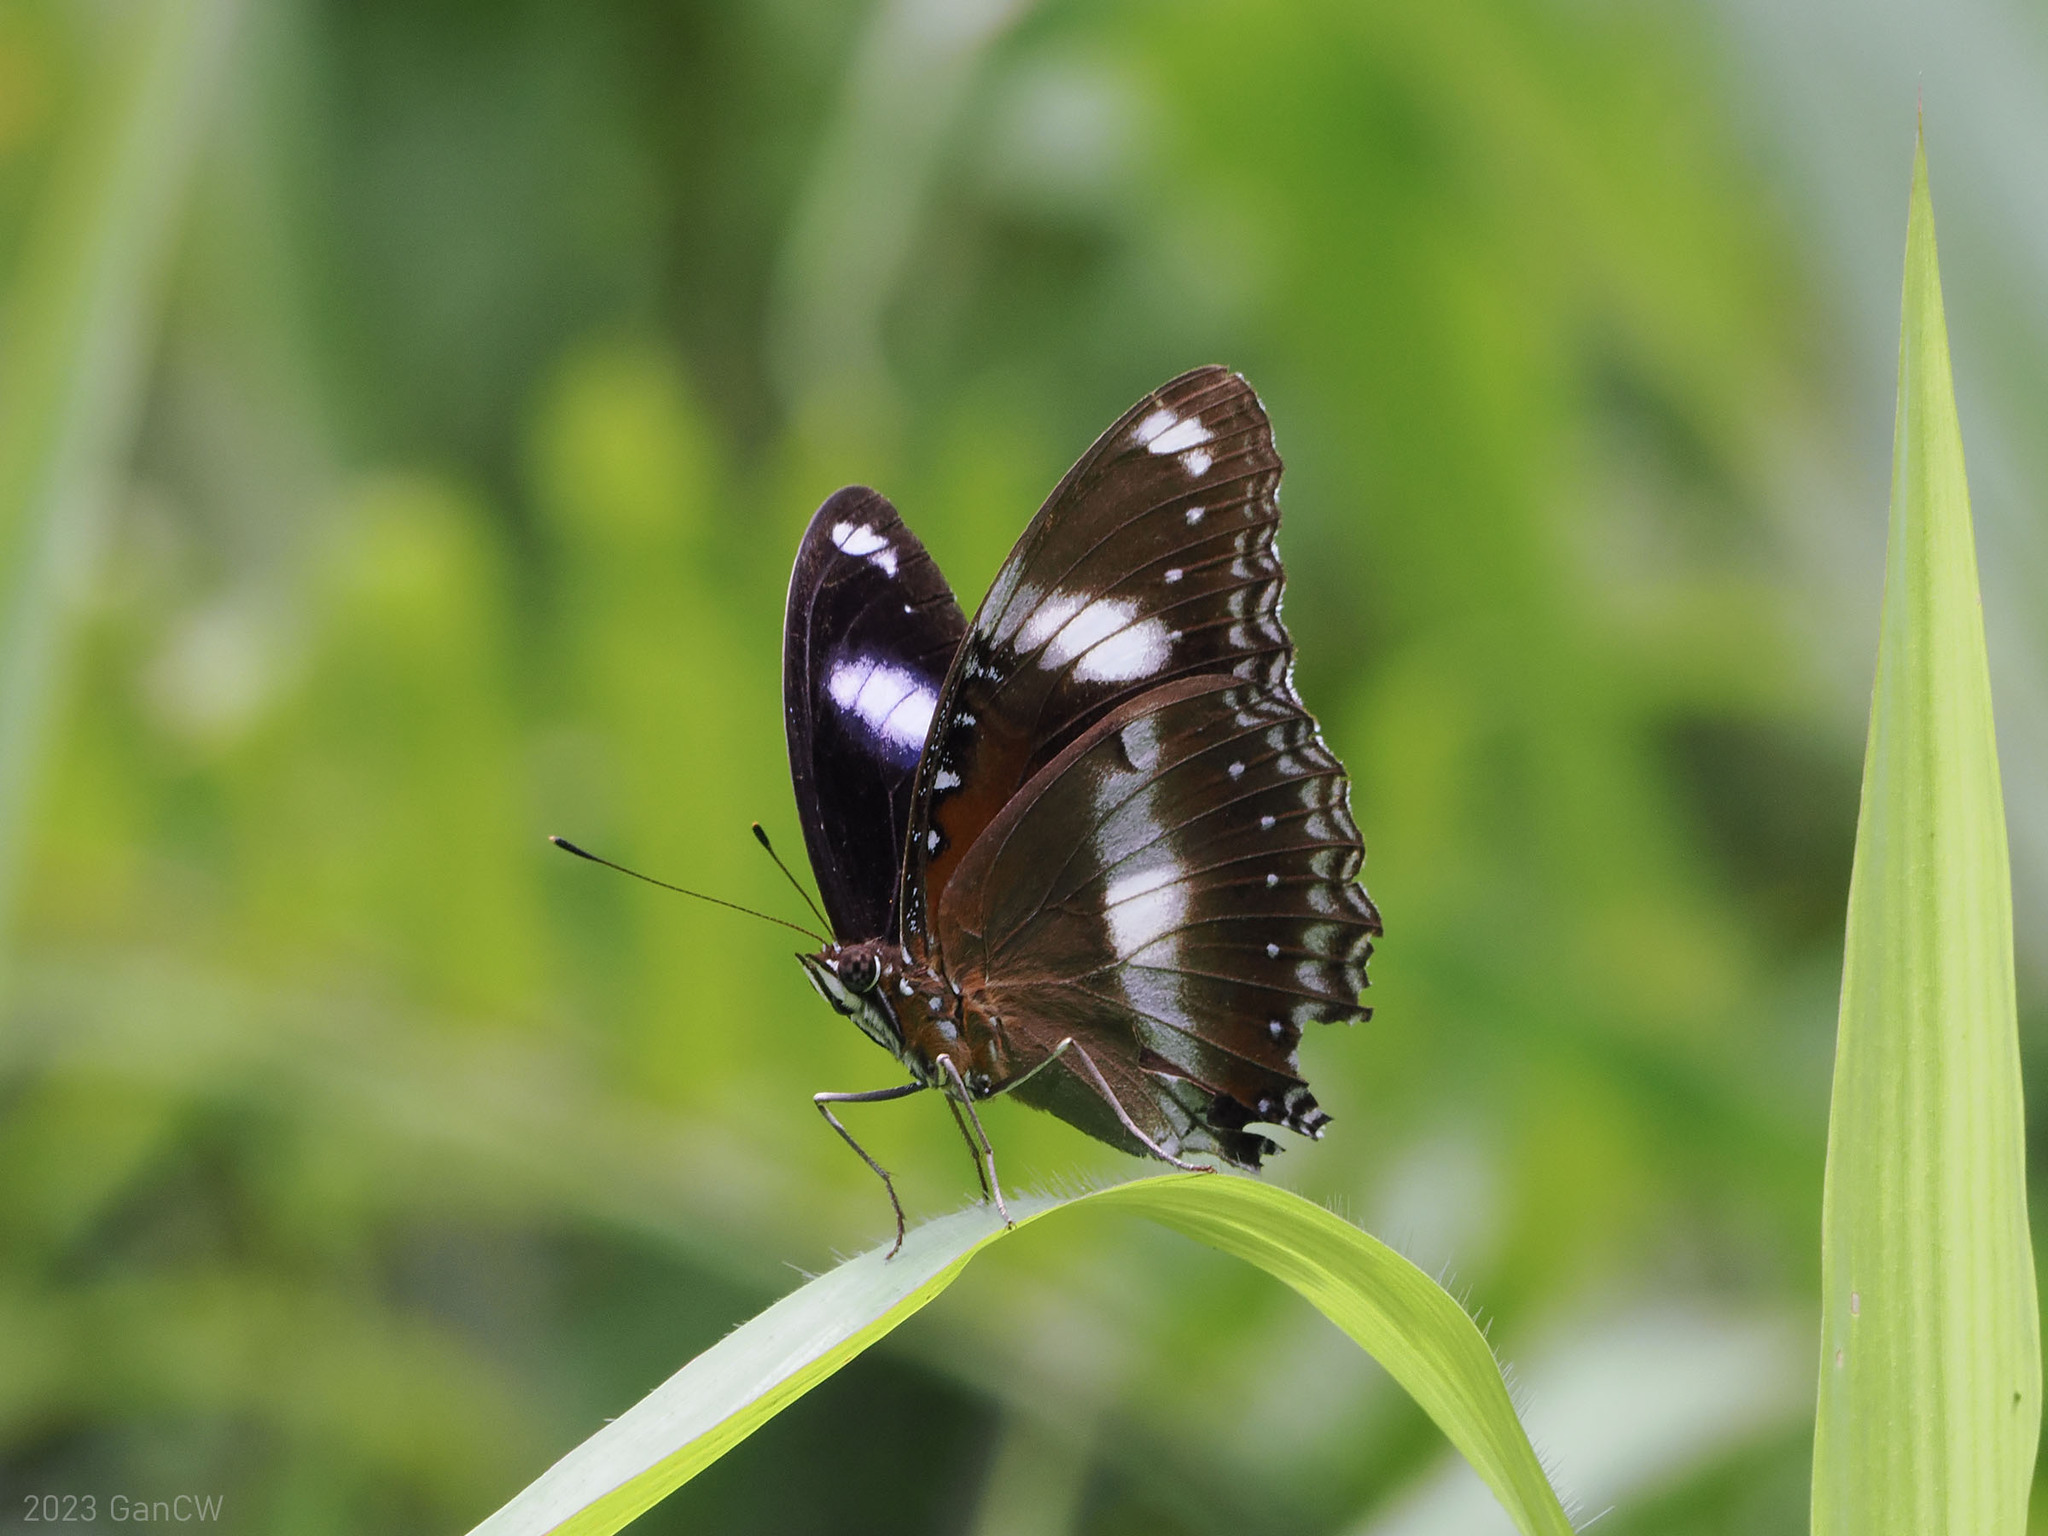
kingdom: Animalia
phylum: Arthropoda
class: Insecta
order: Lepidoptera
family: Nymphalidae
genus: Hypolimnas
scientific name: Hypolimnas bolina
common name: Great eggfly
